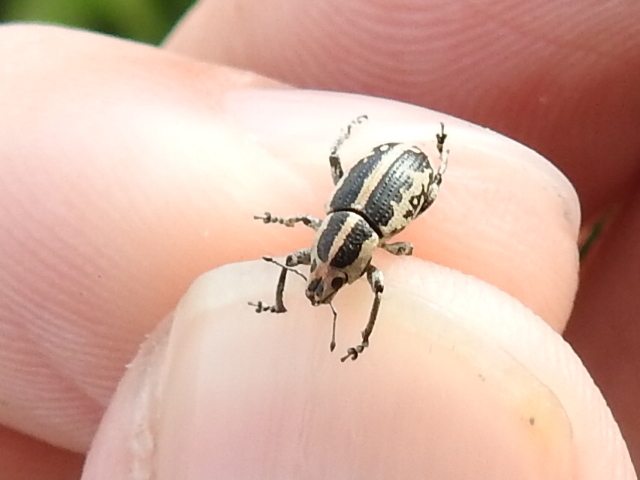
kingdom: Animalia
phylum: Arthropoda
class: Insecta
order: Coleoptera
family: Curculionidae
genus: Eudiagogus
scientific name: Eudiagogus rosenschoeldi
